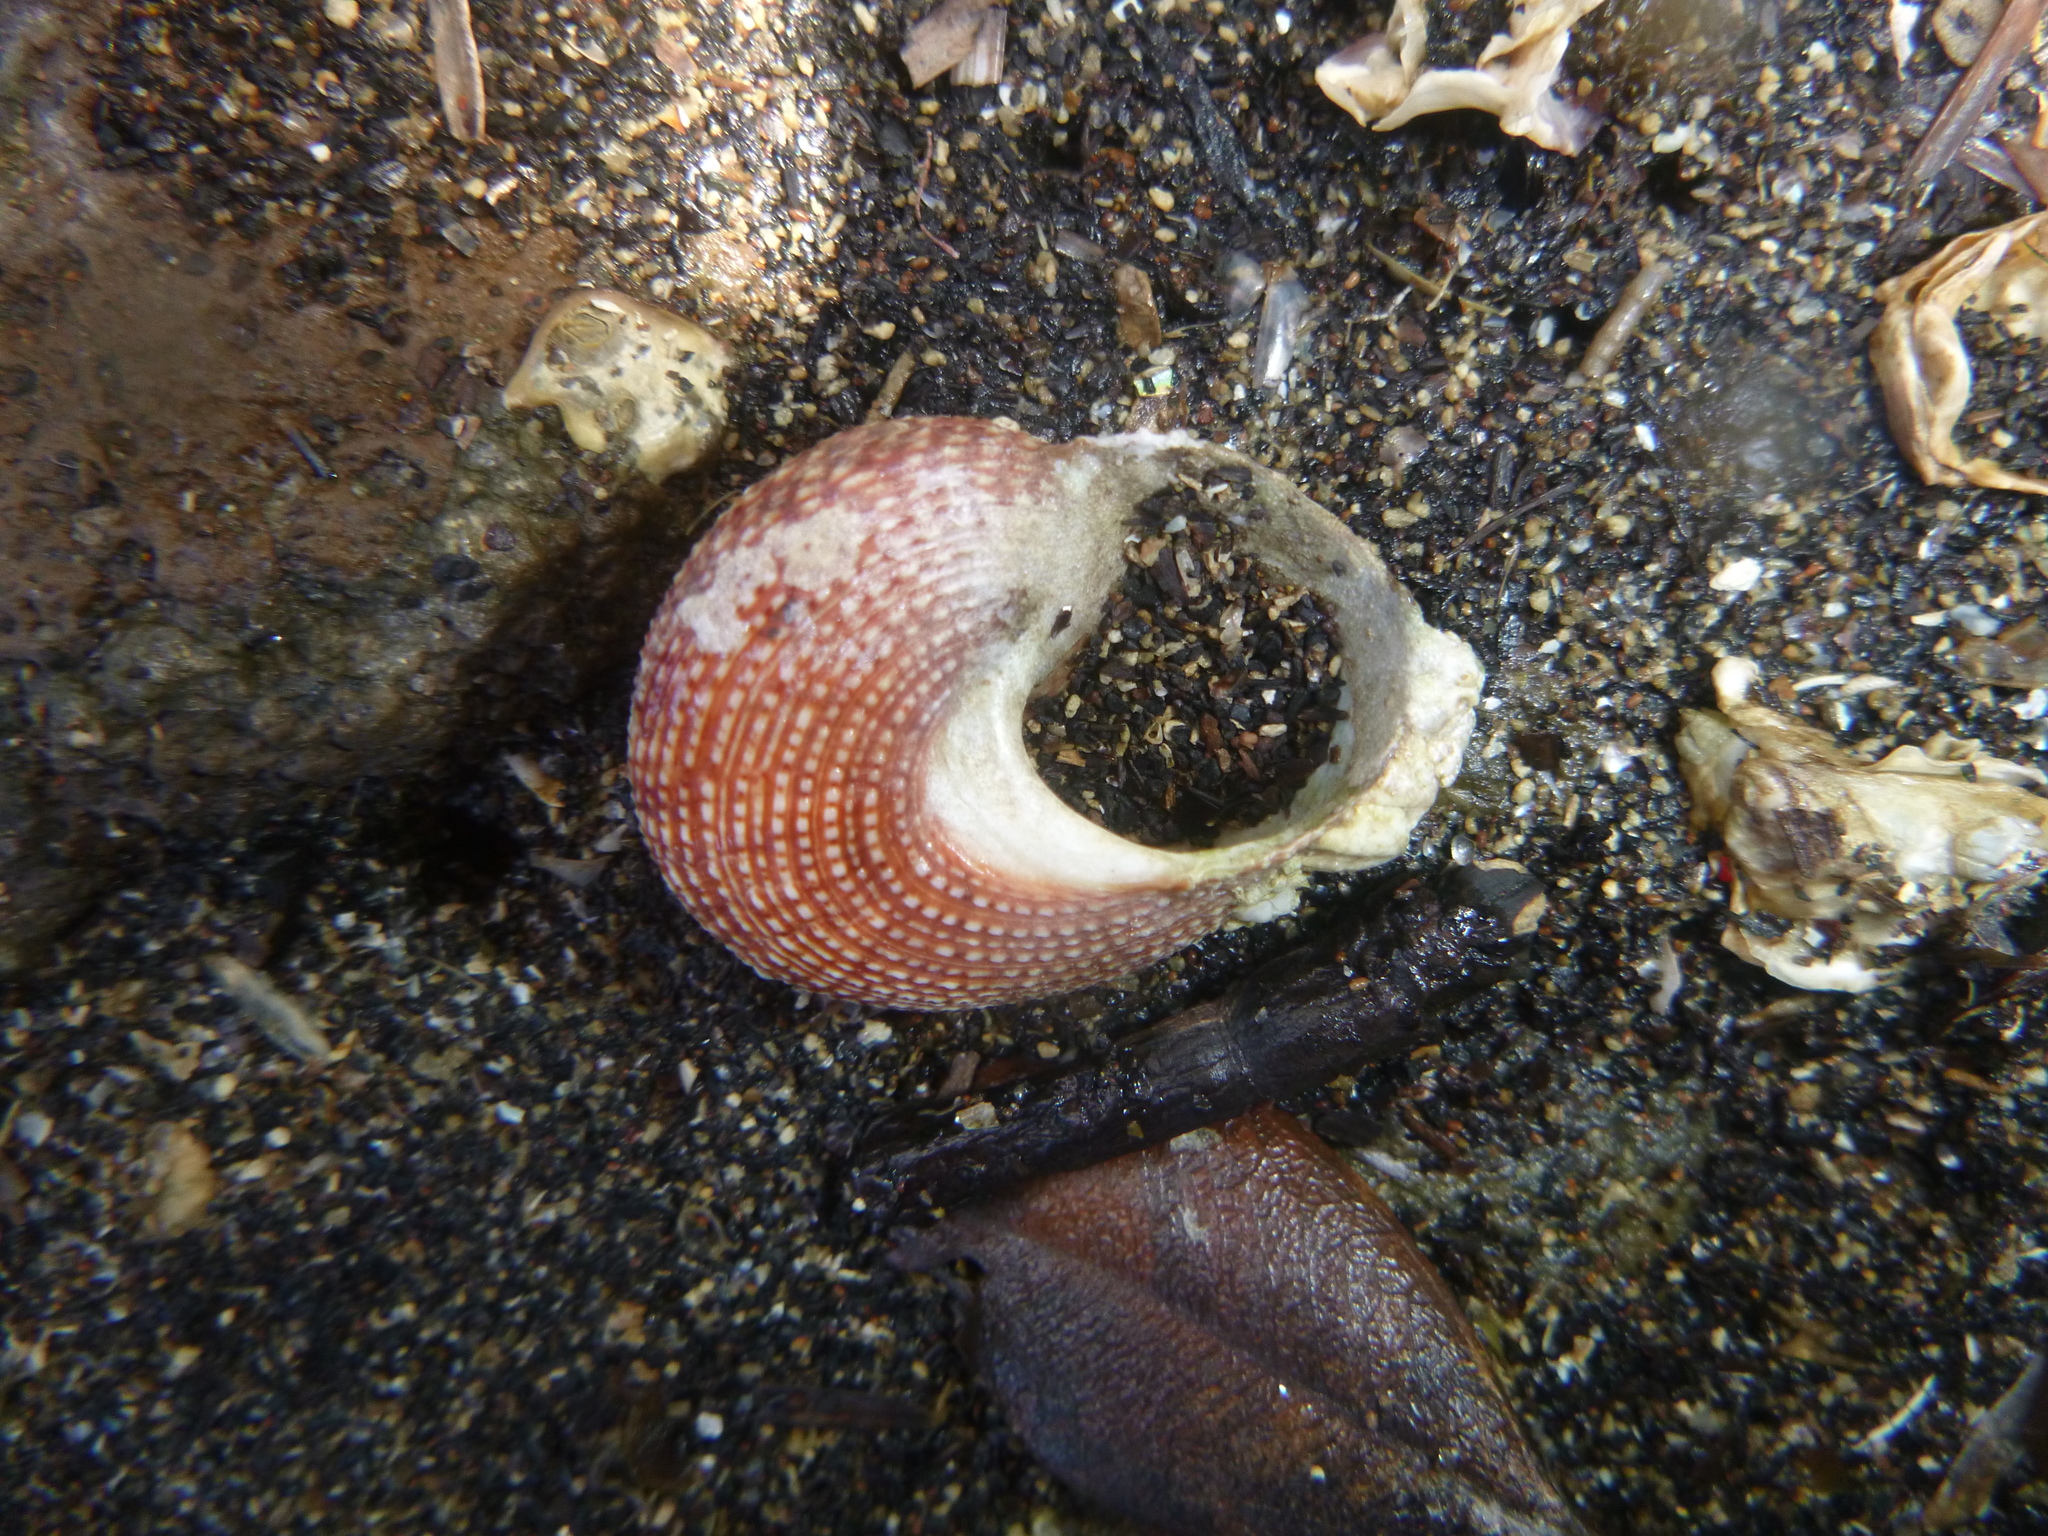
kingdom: Animalia
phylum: Mollusca
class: Gastropoda
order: Trochida
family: Calliostomatidae
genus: Maurea
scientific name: Maurea punctulata
